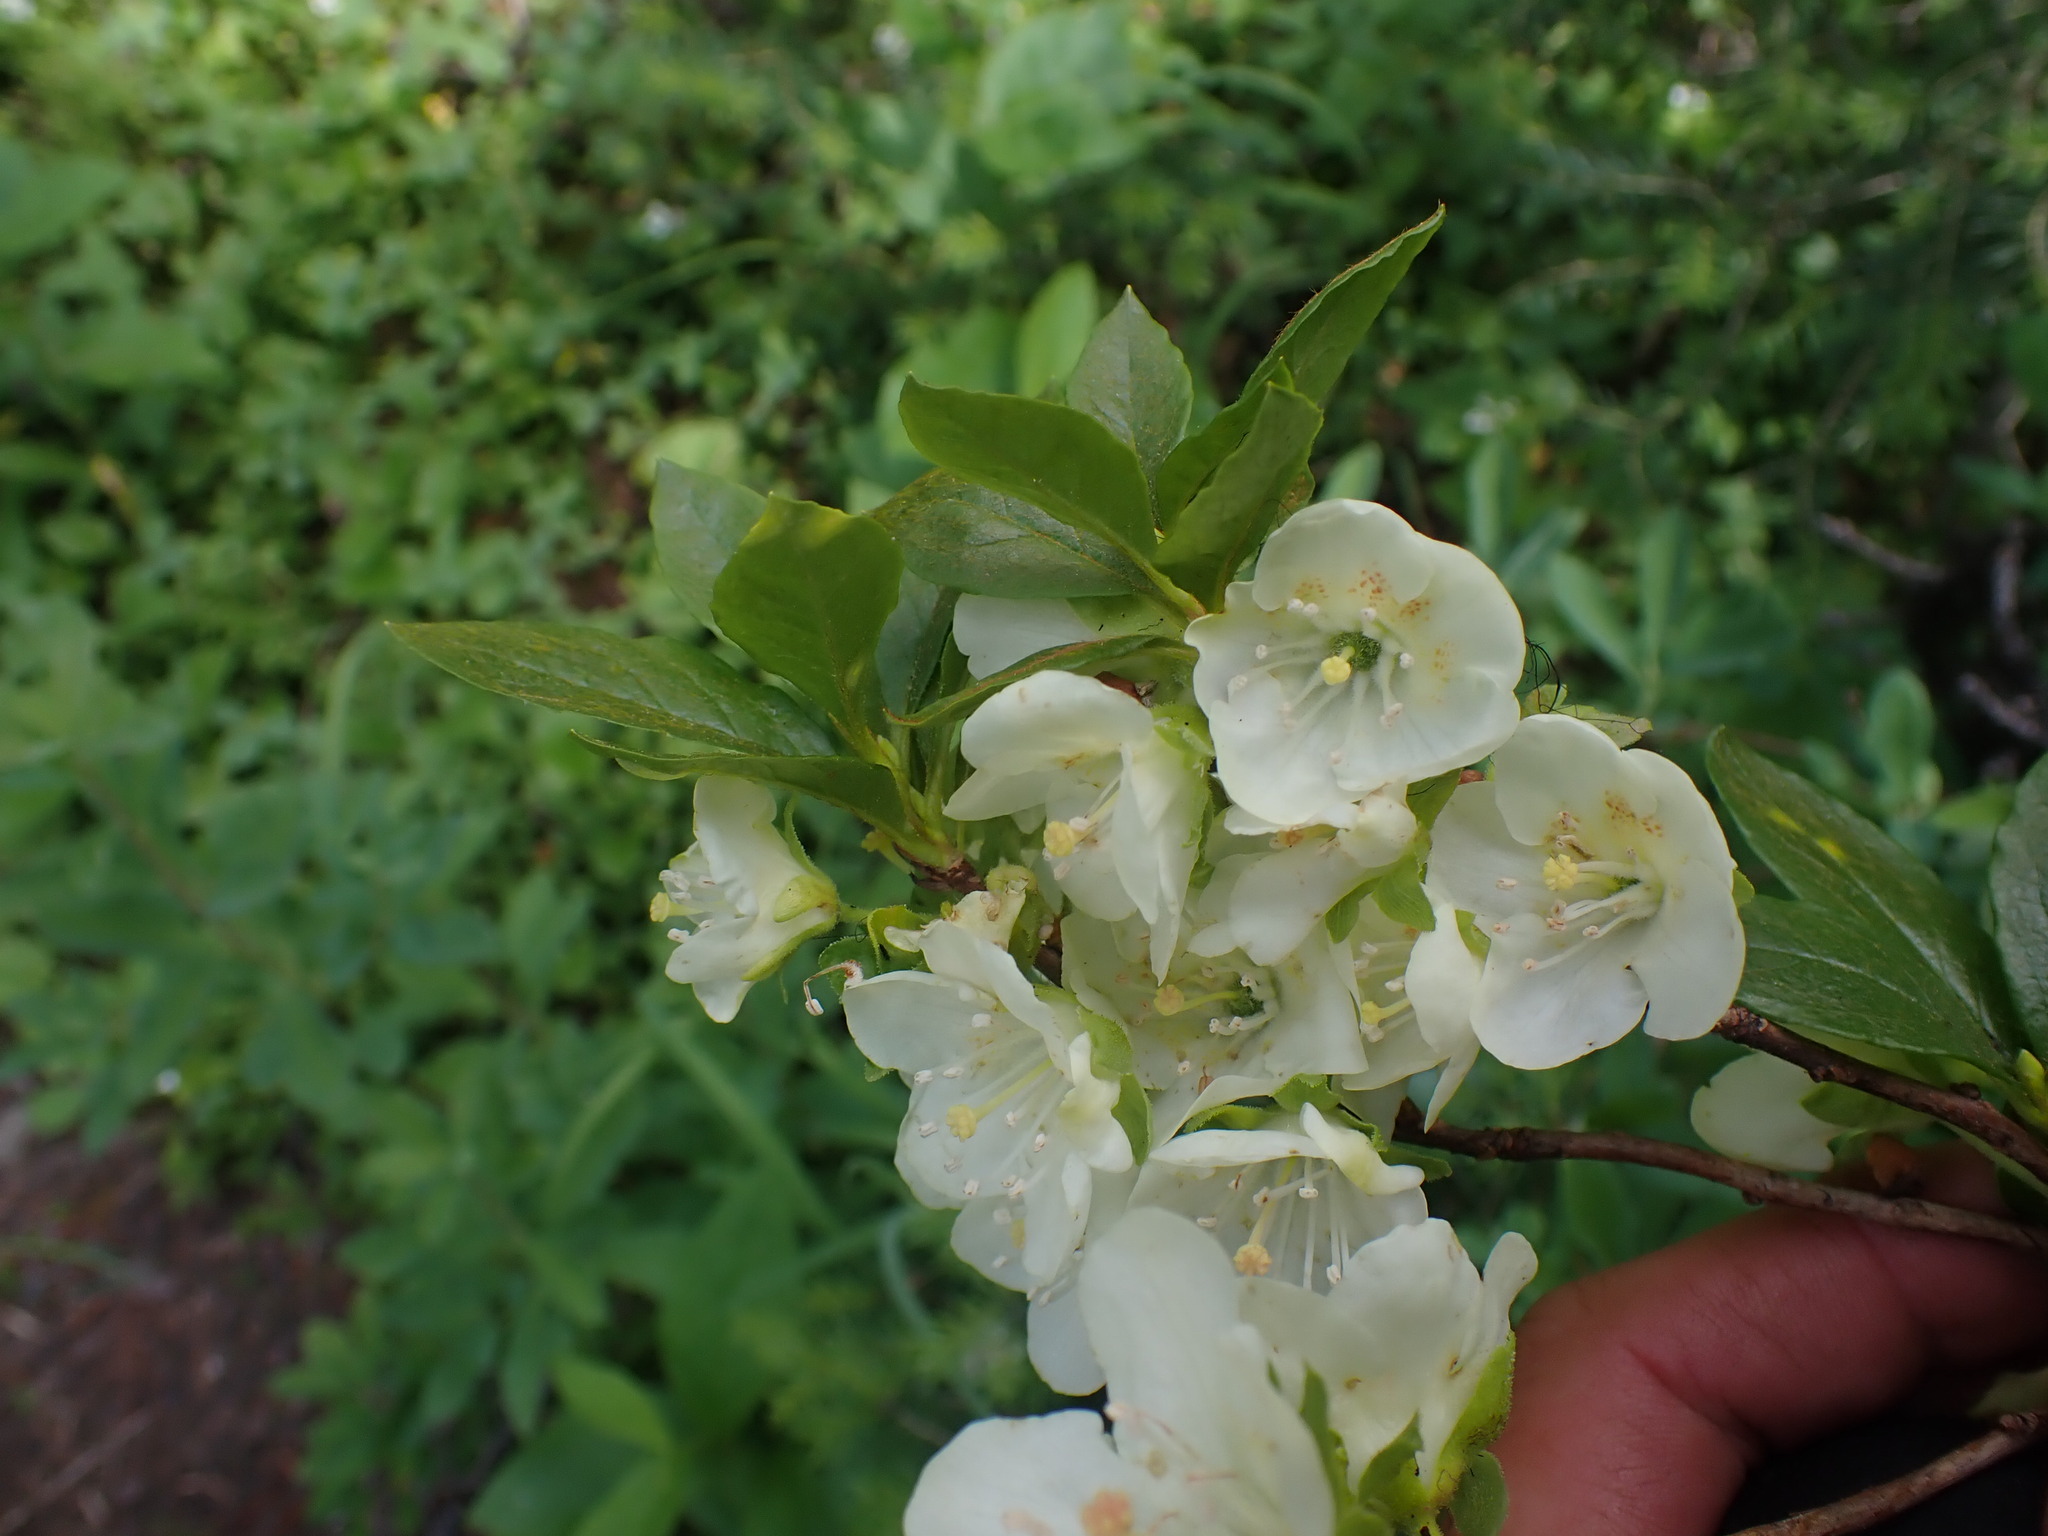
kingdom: Plantae
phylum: Tracheophyta
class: Magnoliopsida
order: Ericales
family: Ericaceae
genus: Rhododendron
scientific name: Rhododendron albiflorum
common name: White rhododendron
